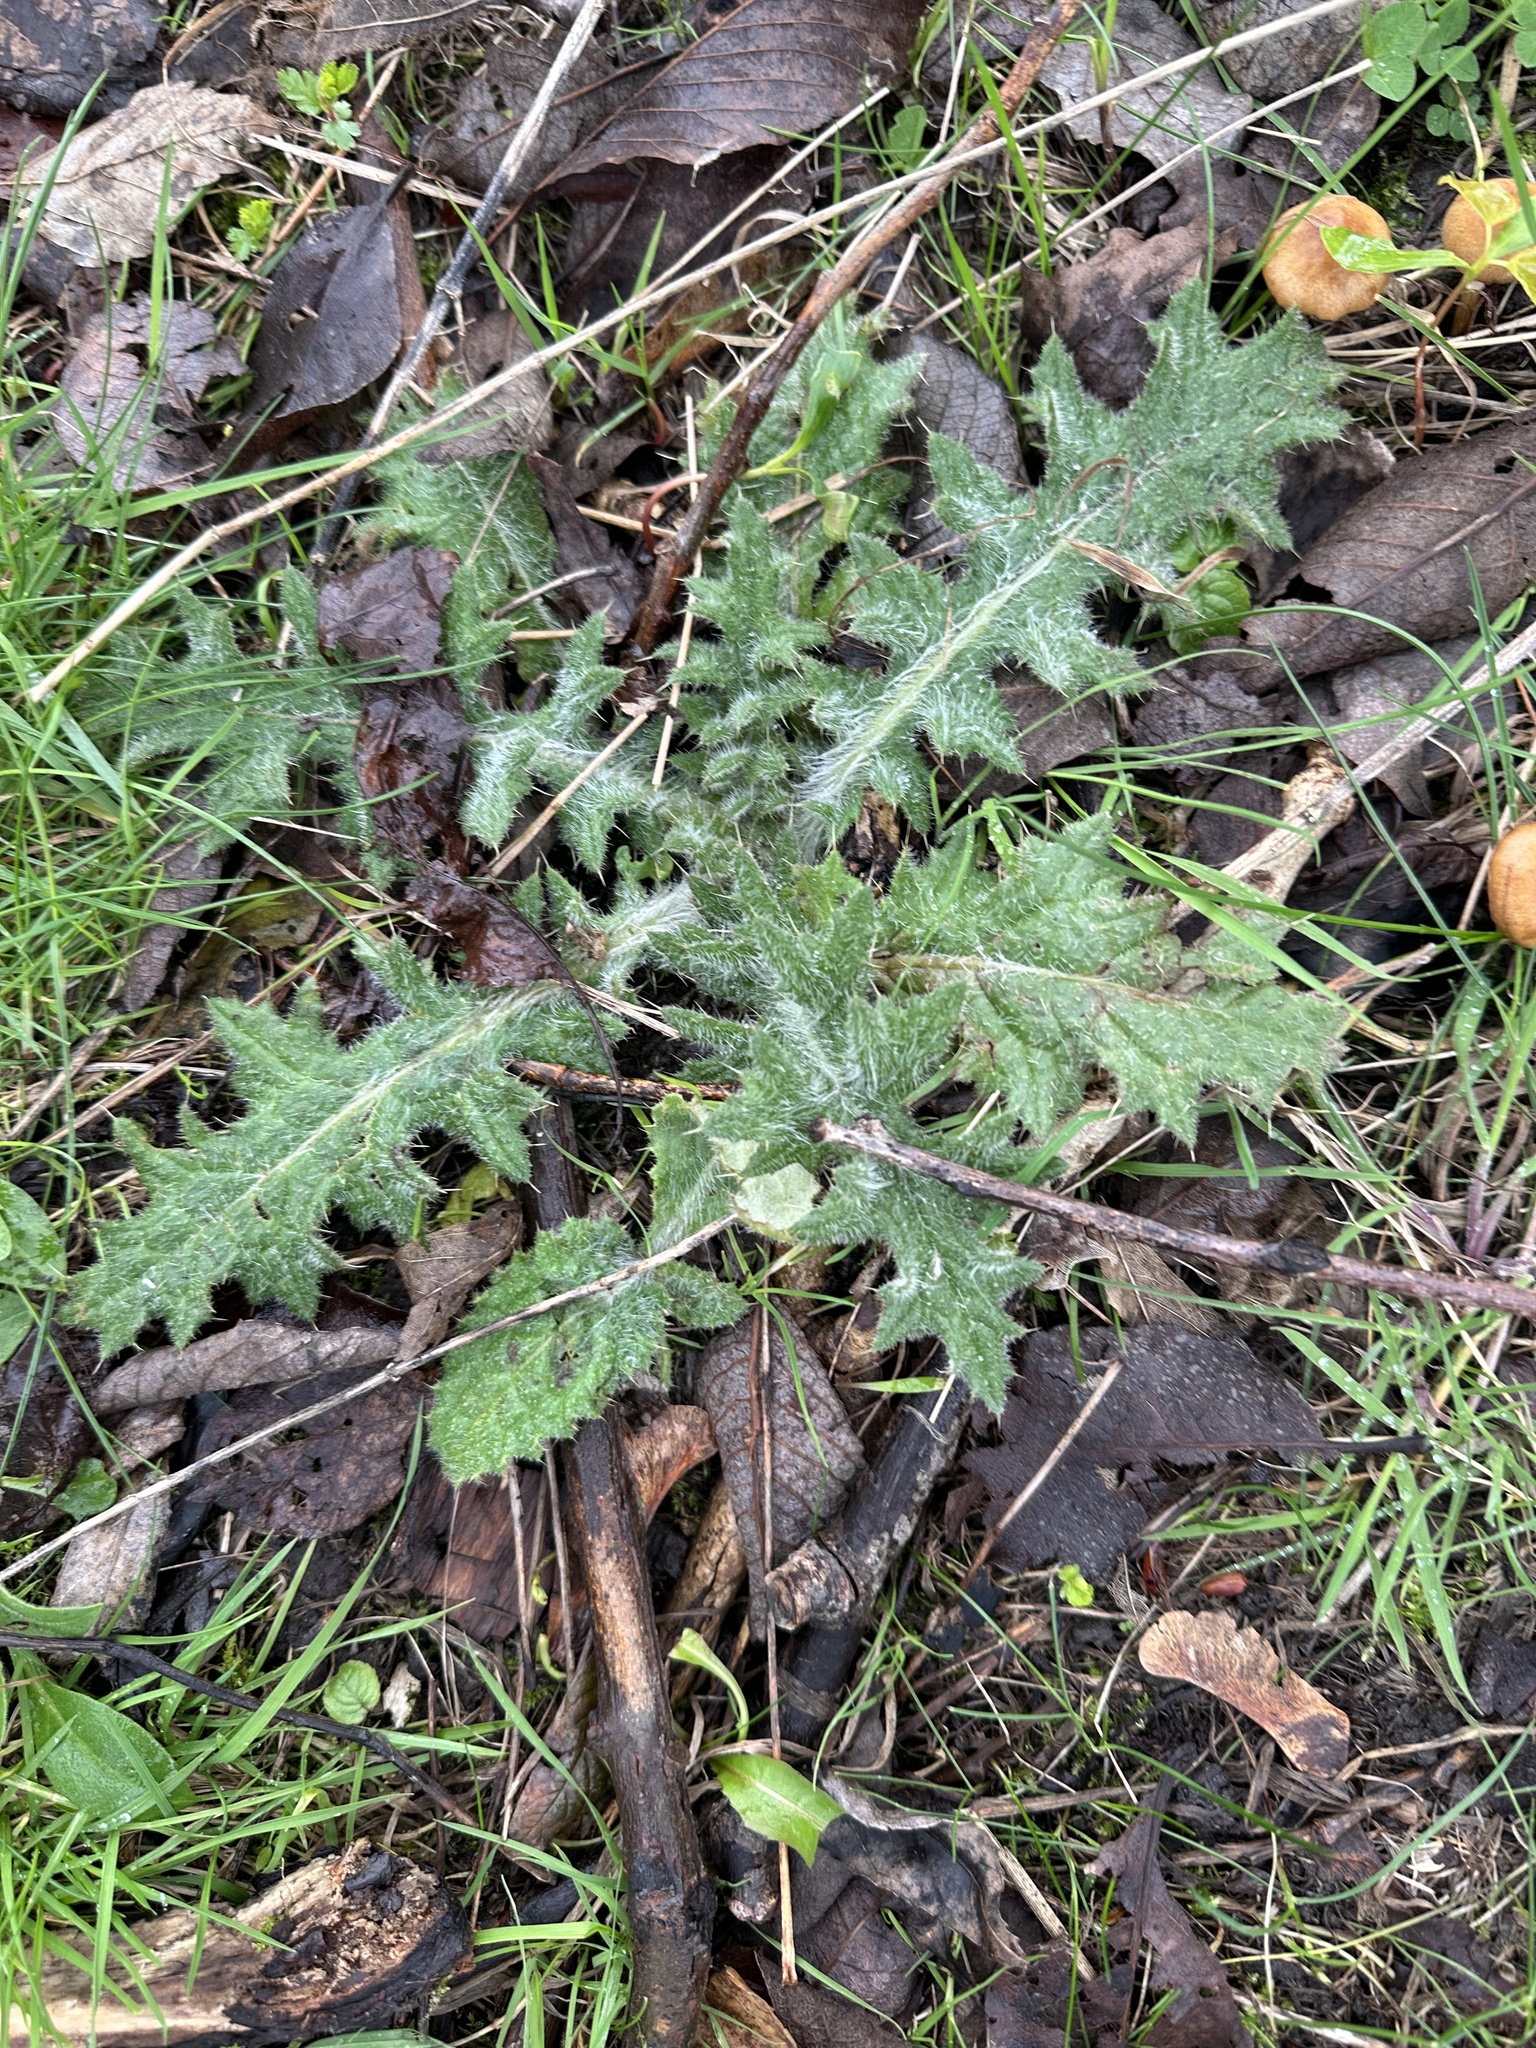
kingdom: Plantae
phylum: Tracheophyta
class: Magnoliopsida
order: Asterales
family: Asteraceae
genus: Cirsium
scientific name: Cirsium vulgare
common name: Bull thistle
